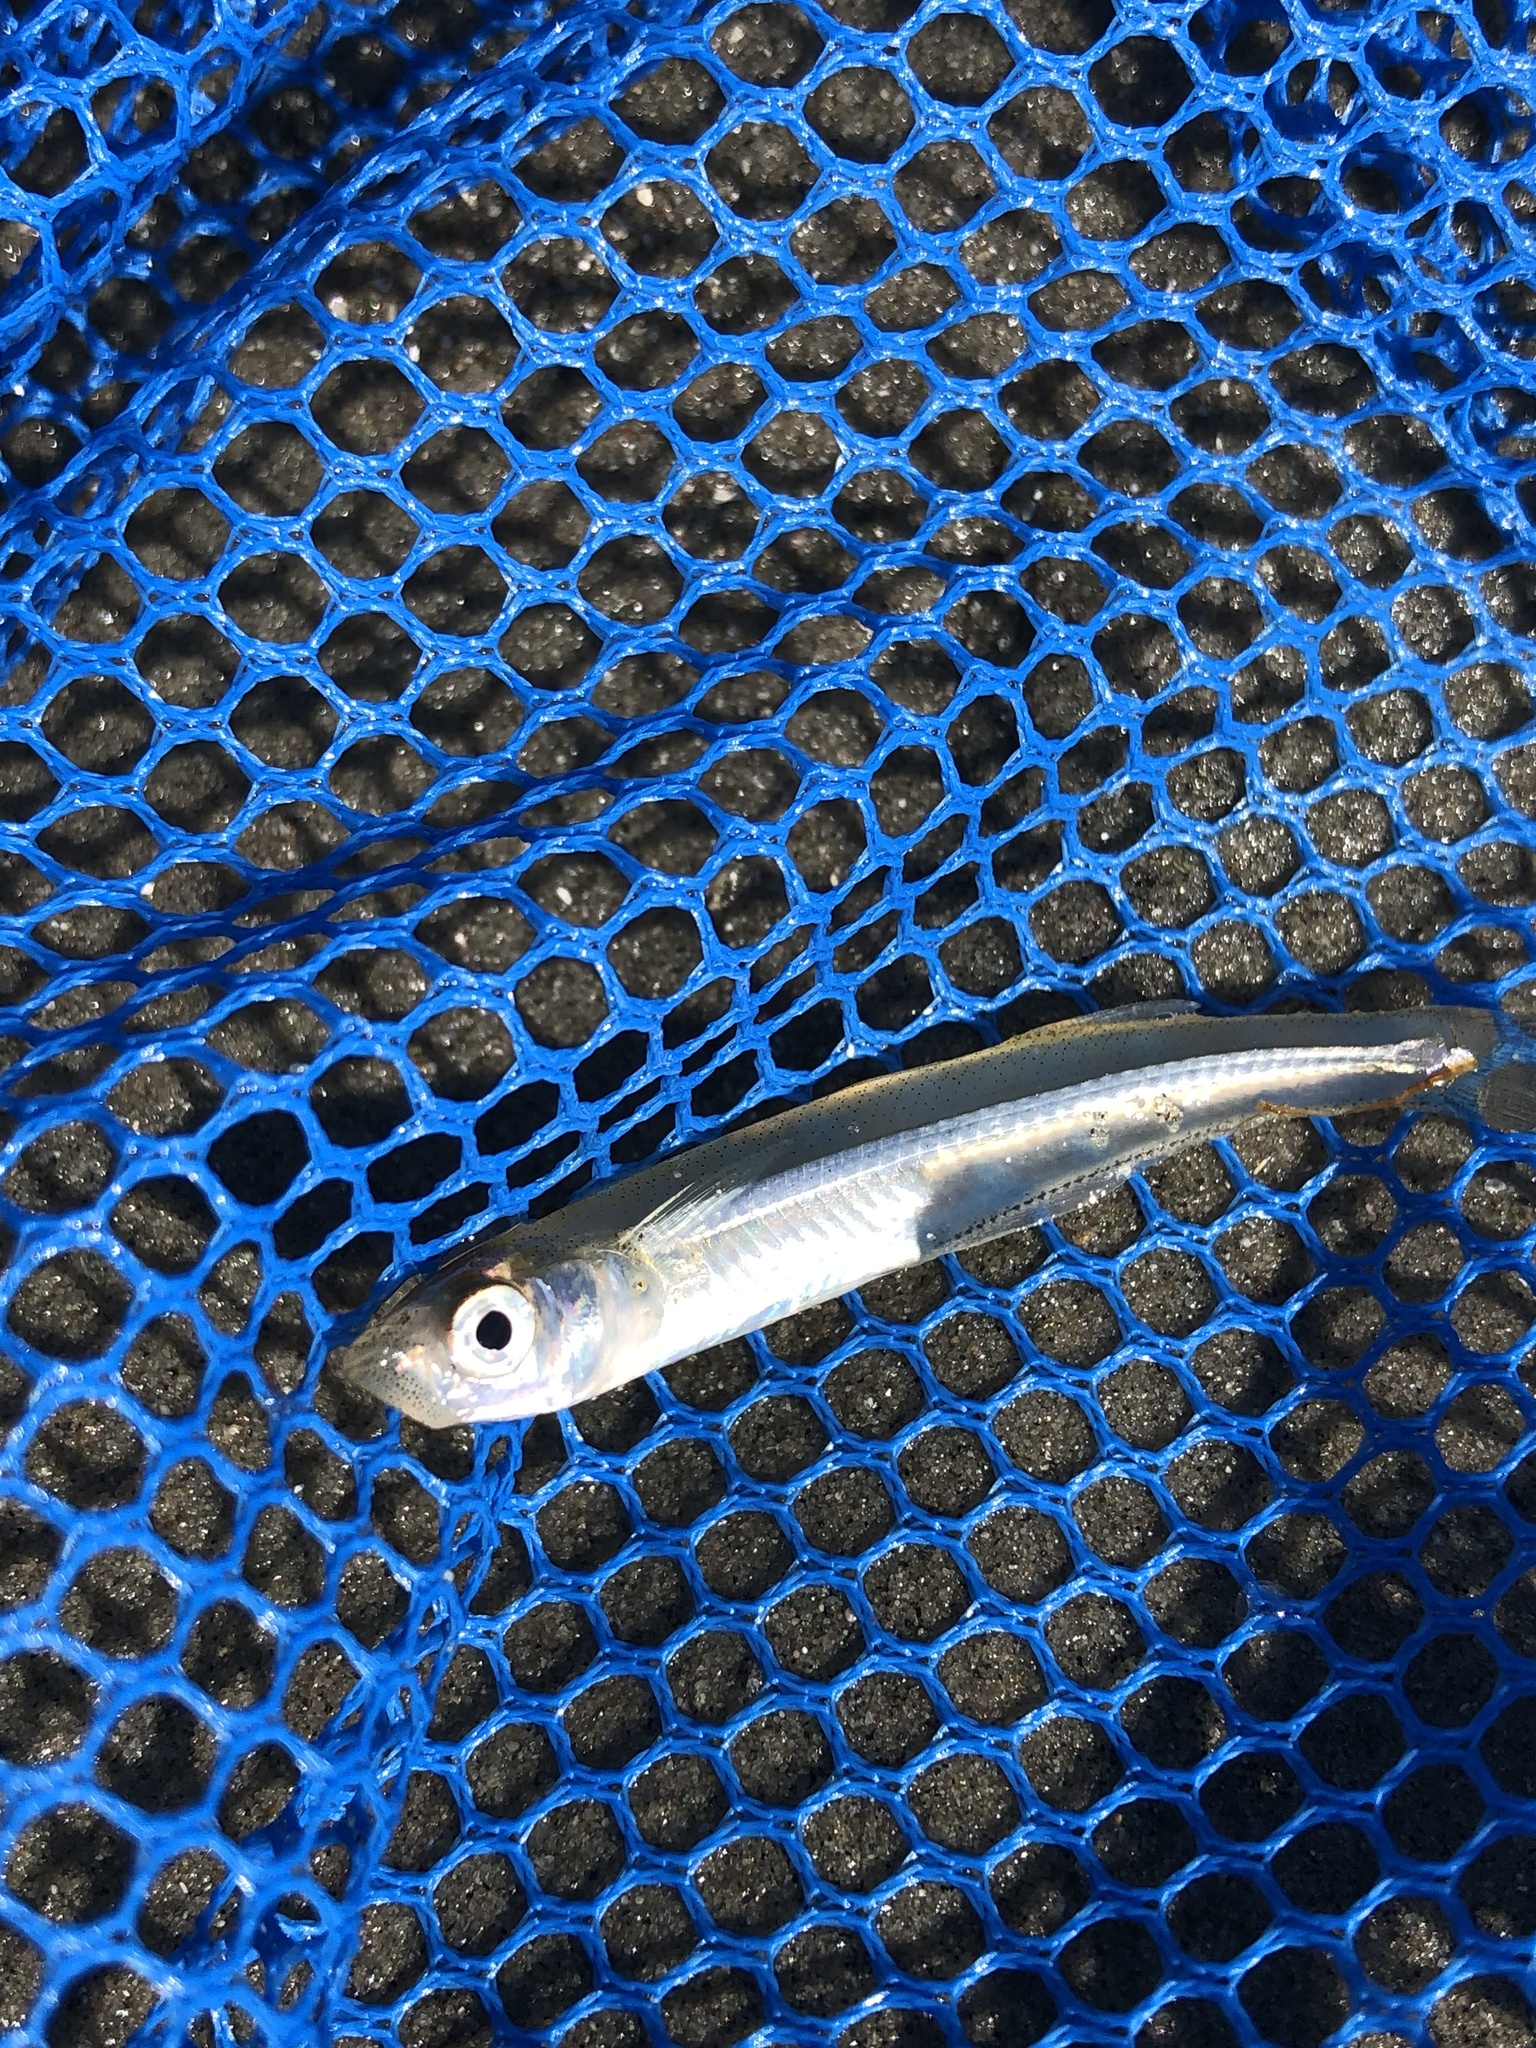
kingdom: Animalia
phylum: Chordata
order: Atheriniformes
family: Atherinopsidae
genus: Menidia
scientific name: Menidia menidia
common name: Atlantic silverside
